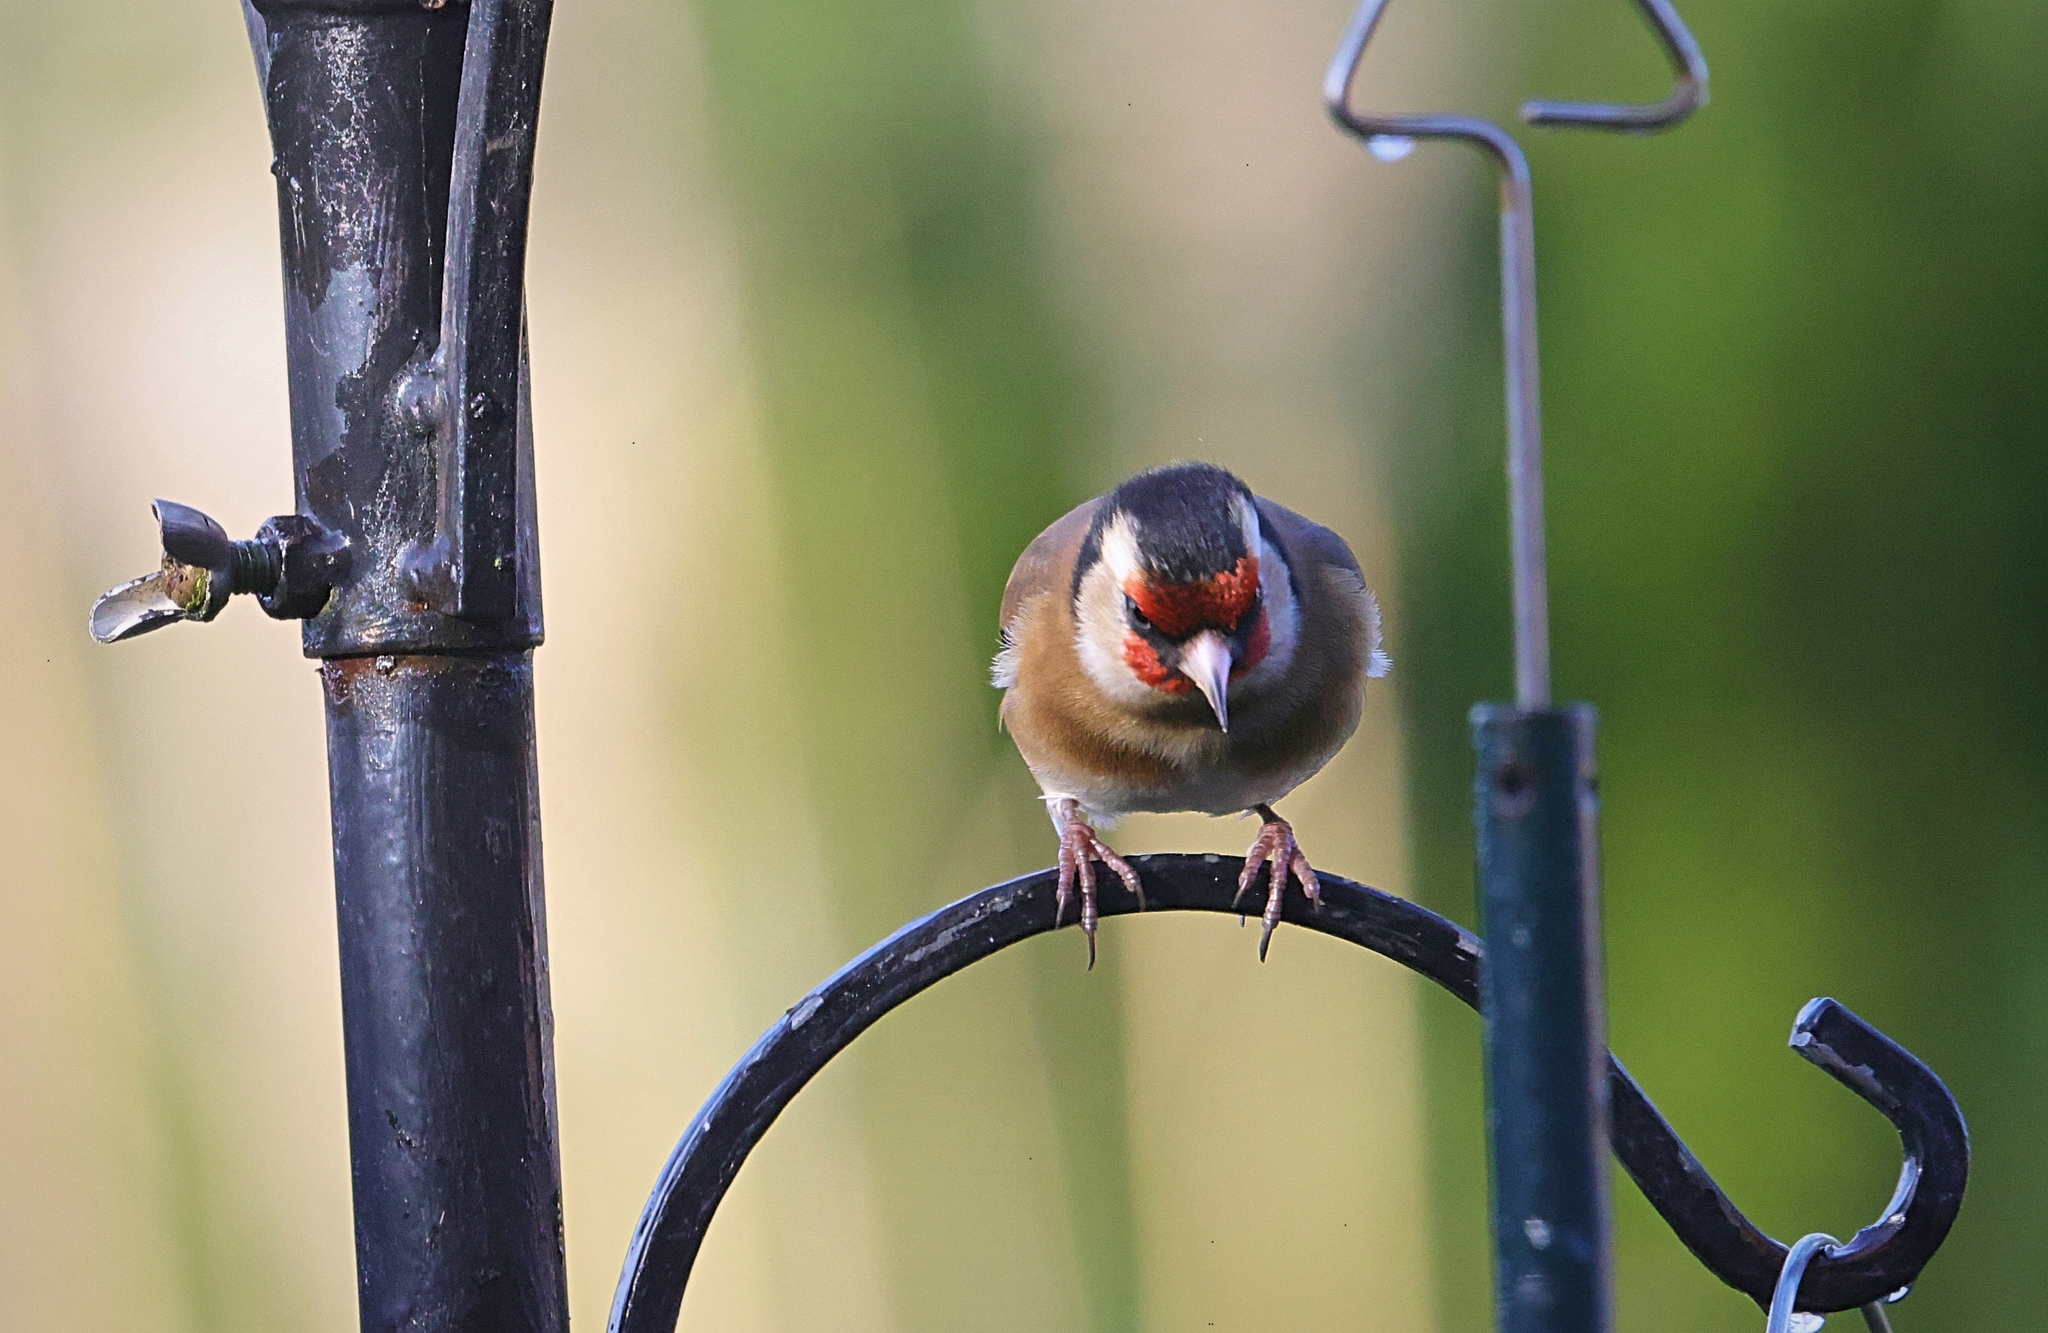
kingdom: Animalia
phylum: Chordata
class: Aves
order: Passeriformes
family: Fringillidae
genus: Carduelis
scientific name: Carduelis carduelis
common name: European goldfinch
